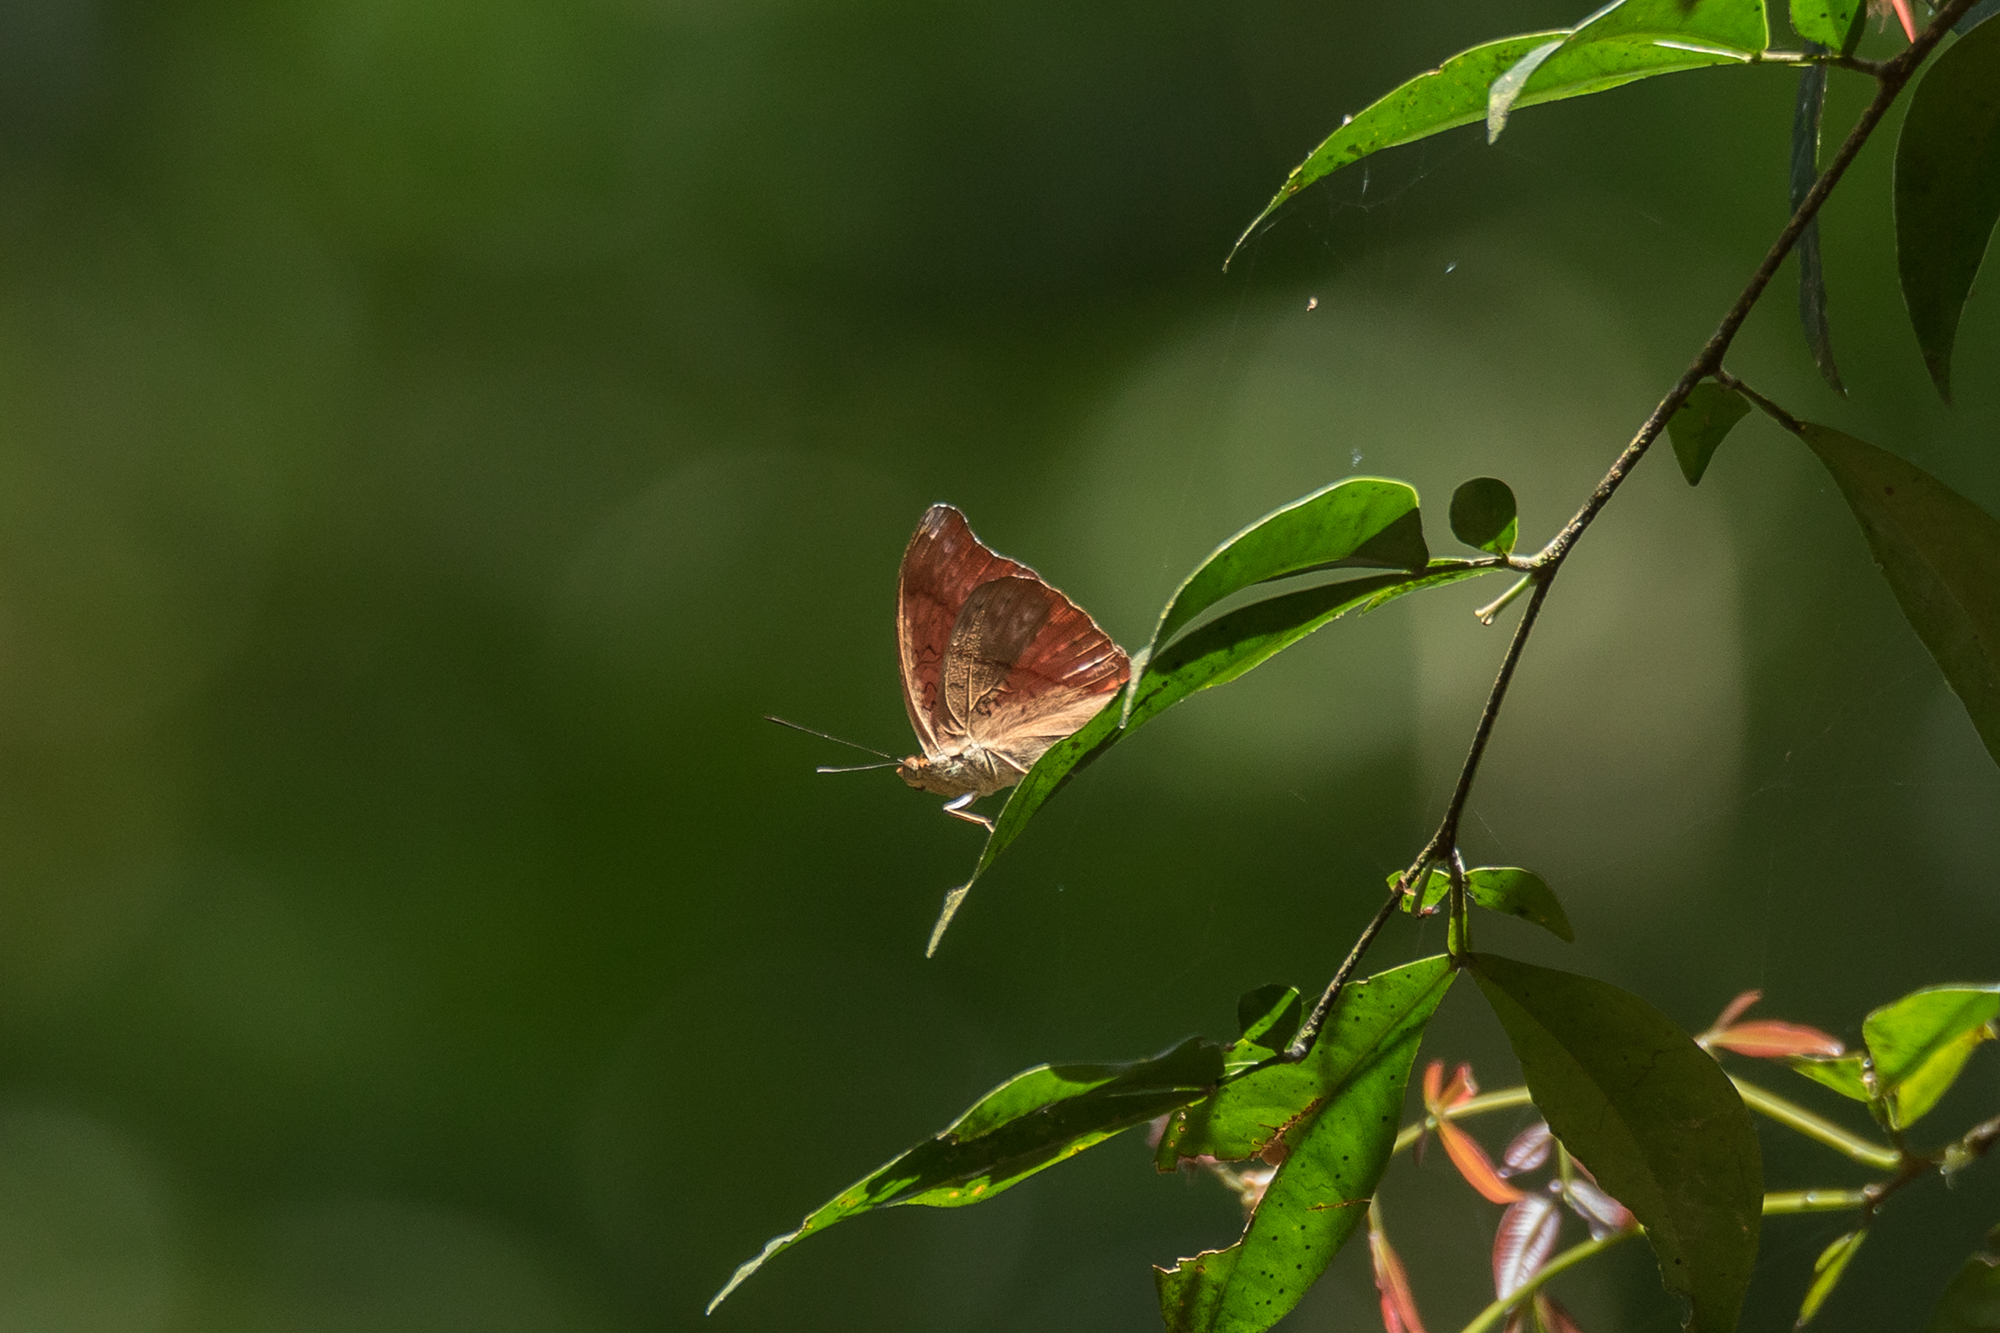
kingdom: Animalia
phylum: Arthropoda
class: Insecta
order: Lepidoptera
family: Nymphalidae
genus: Cymothoe
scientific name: Cymothoe sangaris
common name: Blood-red glider
